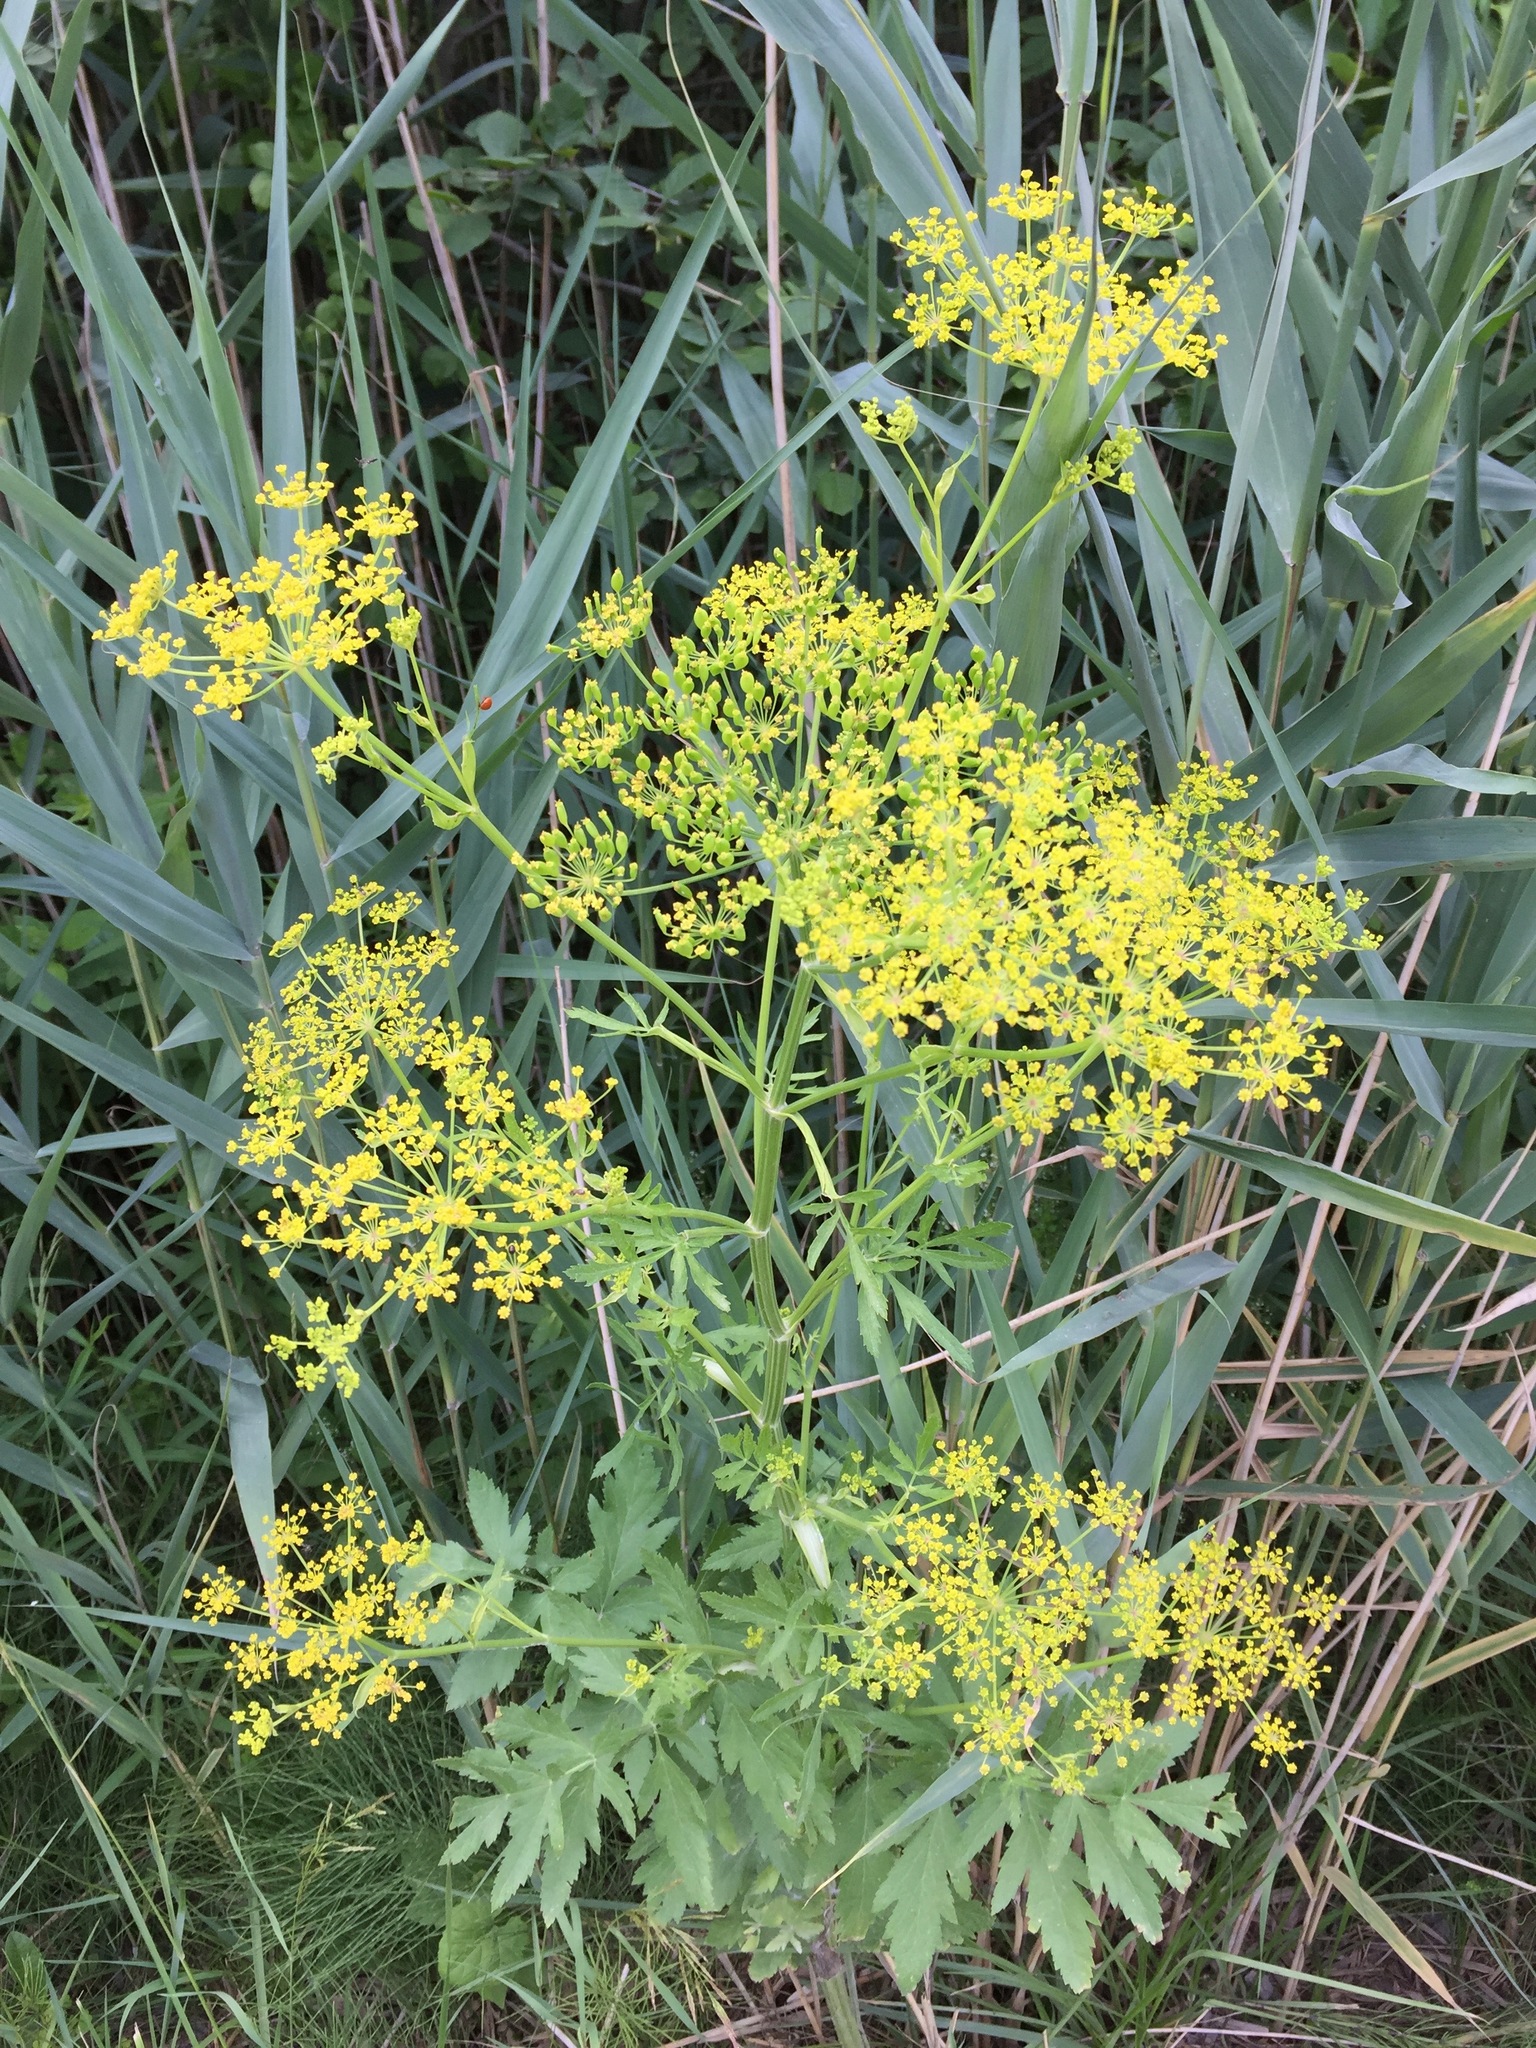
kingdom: Plantae
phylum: Tracheophyta
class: Magnoliopsida
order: Apiales
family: Apiaceae
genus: Pastinaca
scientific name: Pastinaca sativa
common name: Wild parsnip
